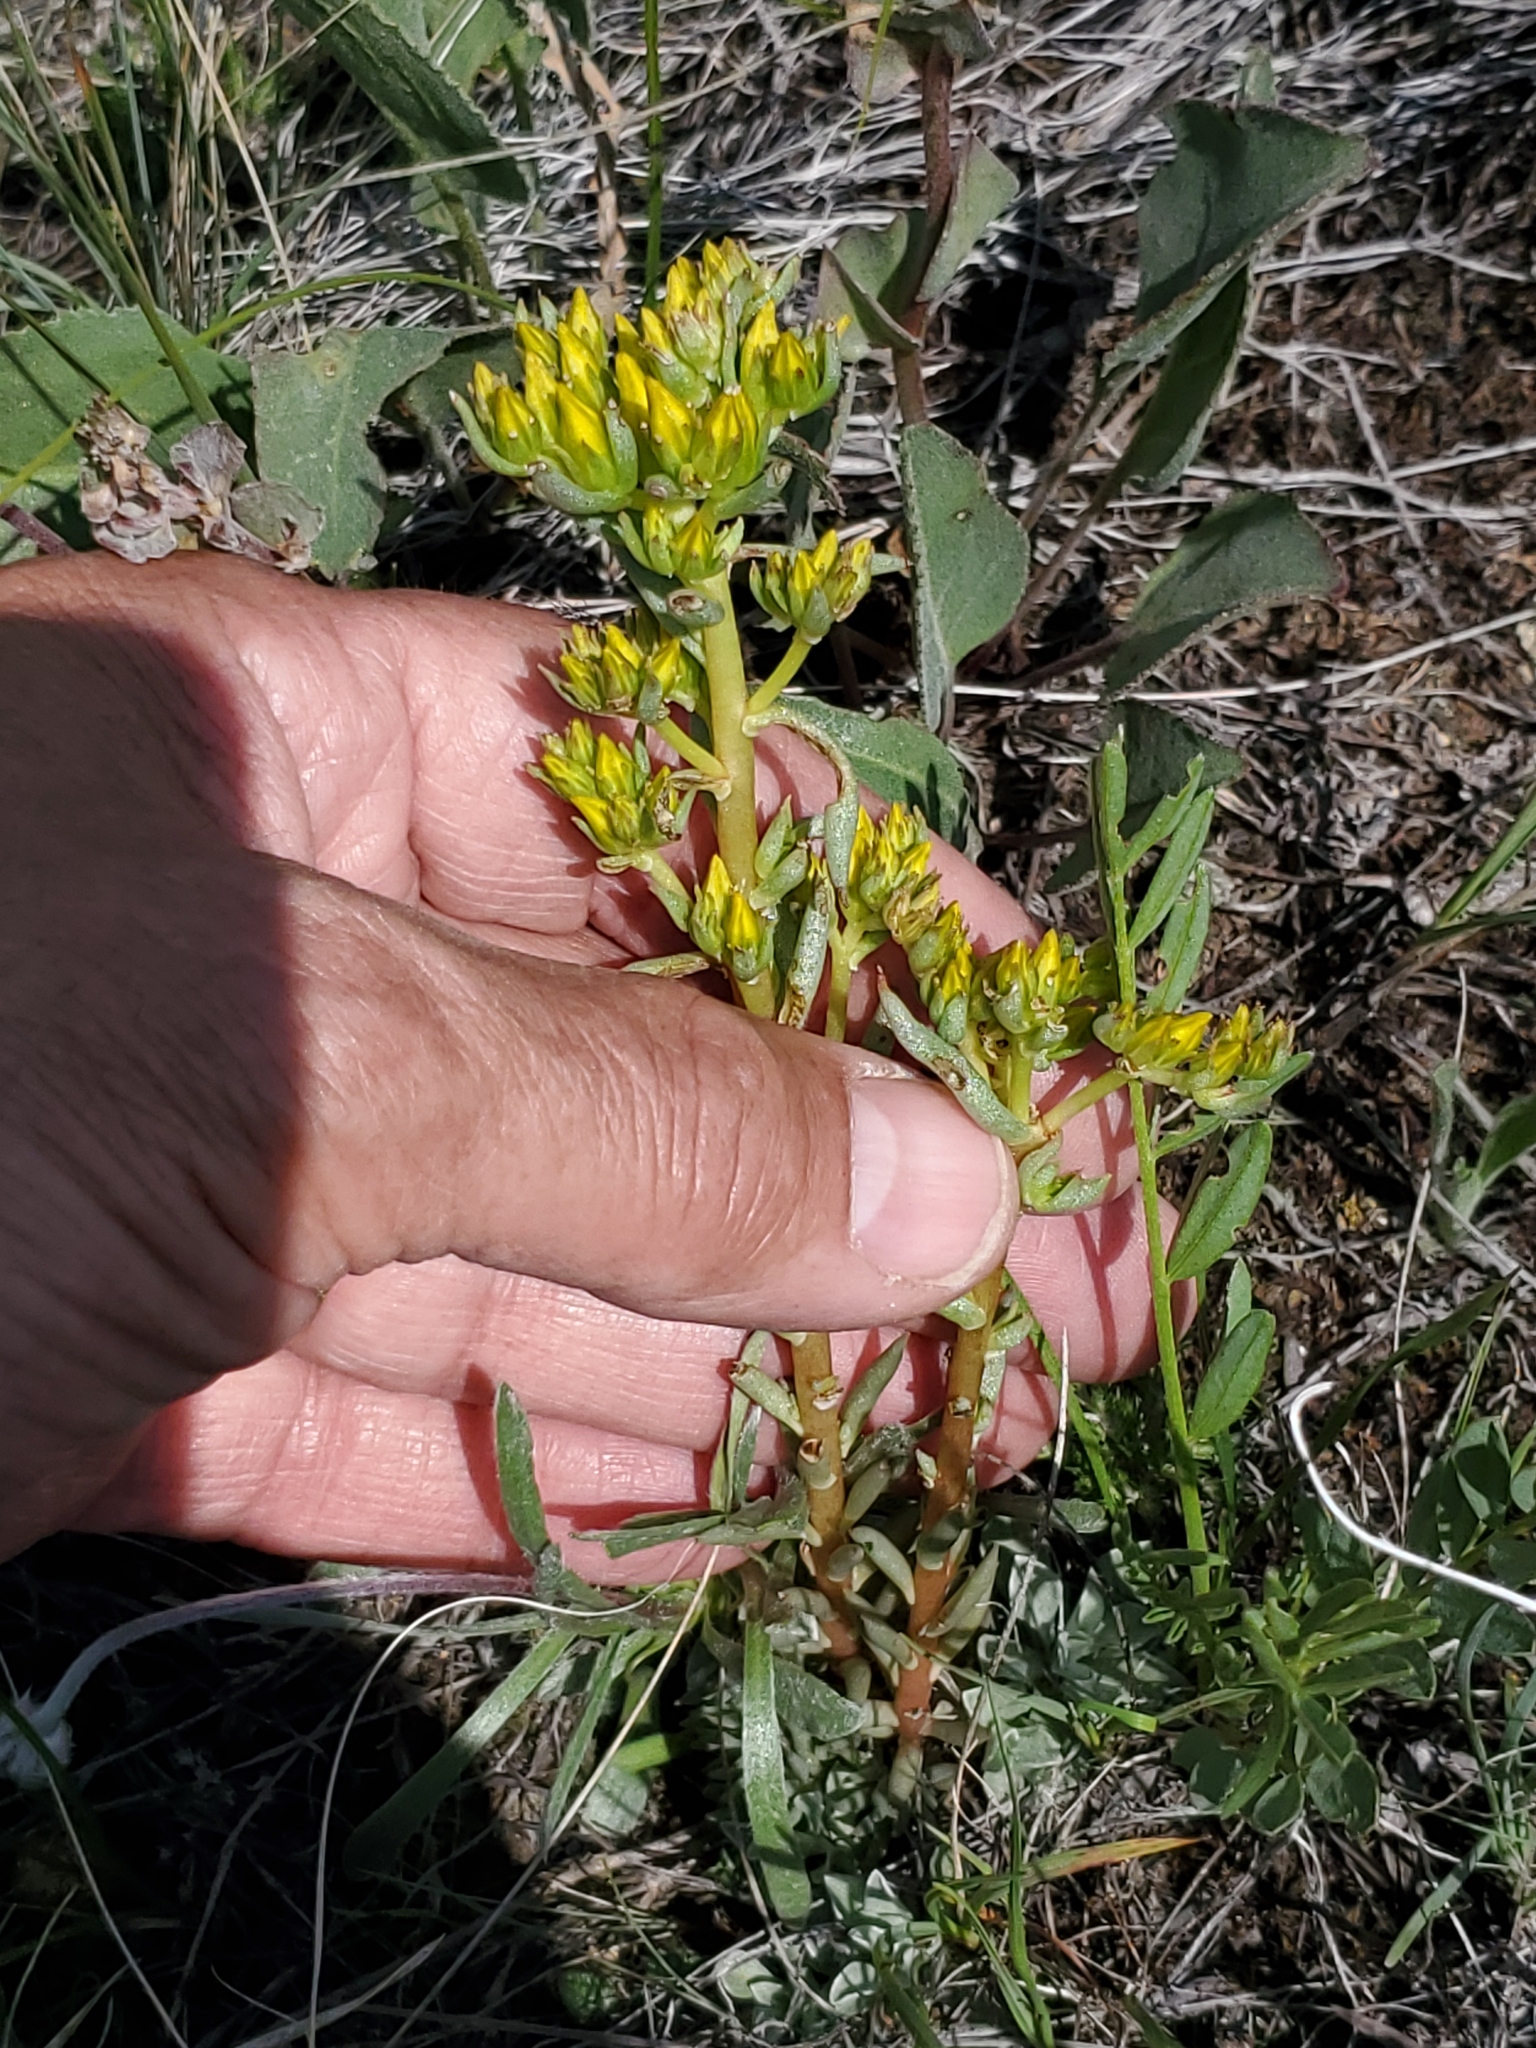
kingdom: Plantae
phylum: Tracheophyta
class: Magnoliopsida
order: Saxifragales
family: Crassulaceae
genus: Sedum
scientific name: Sedum lanceolatum
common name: Common stonecrop
